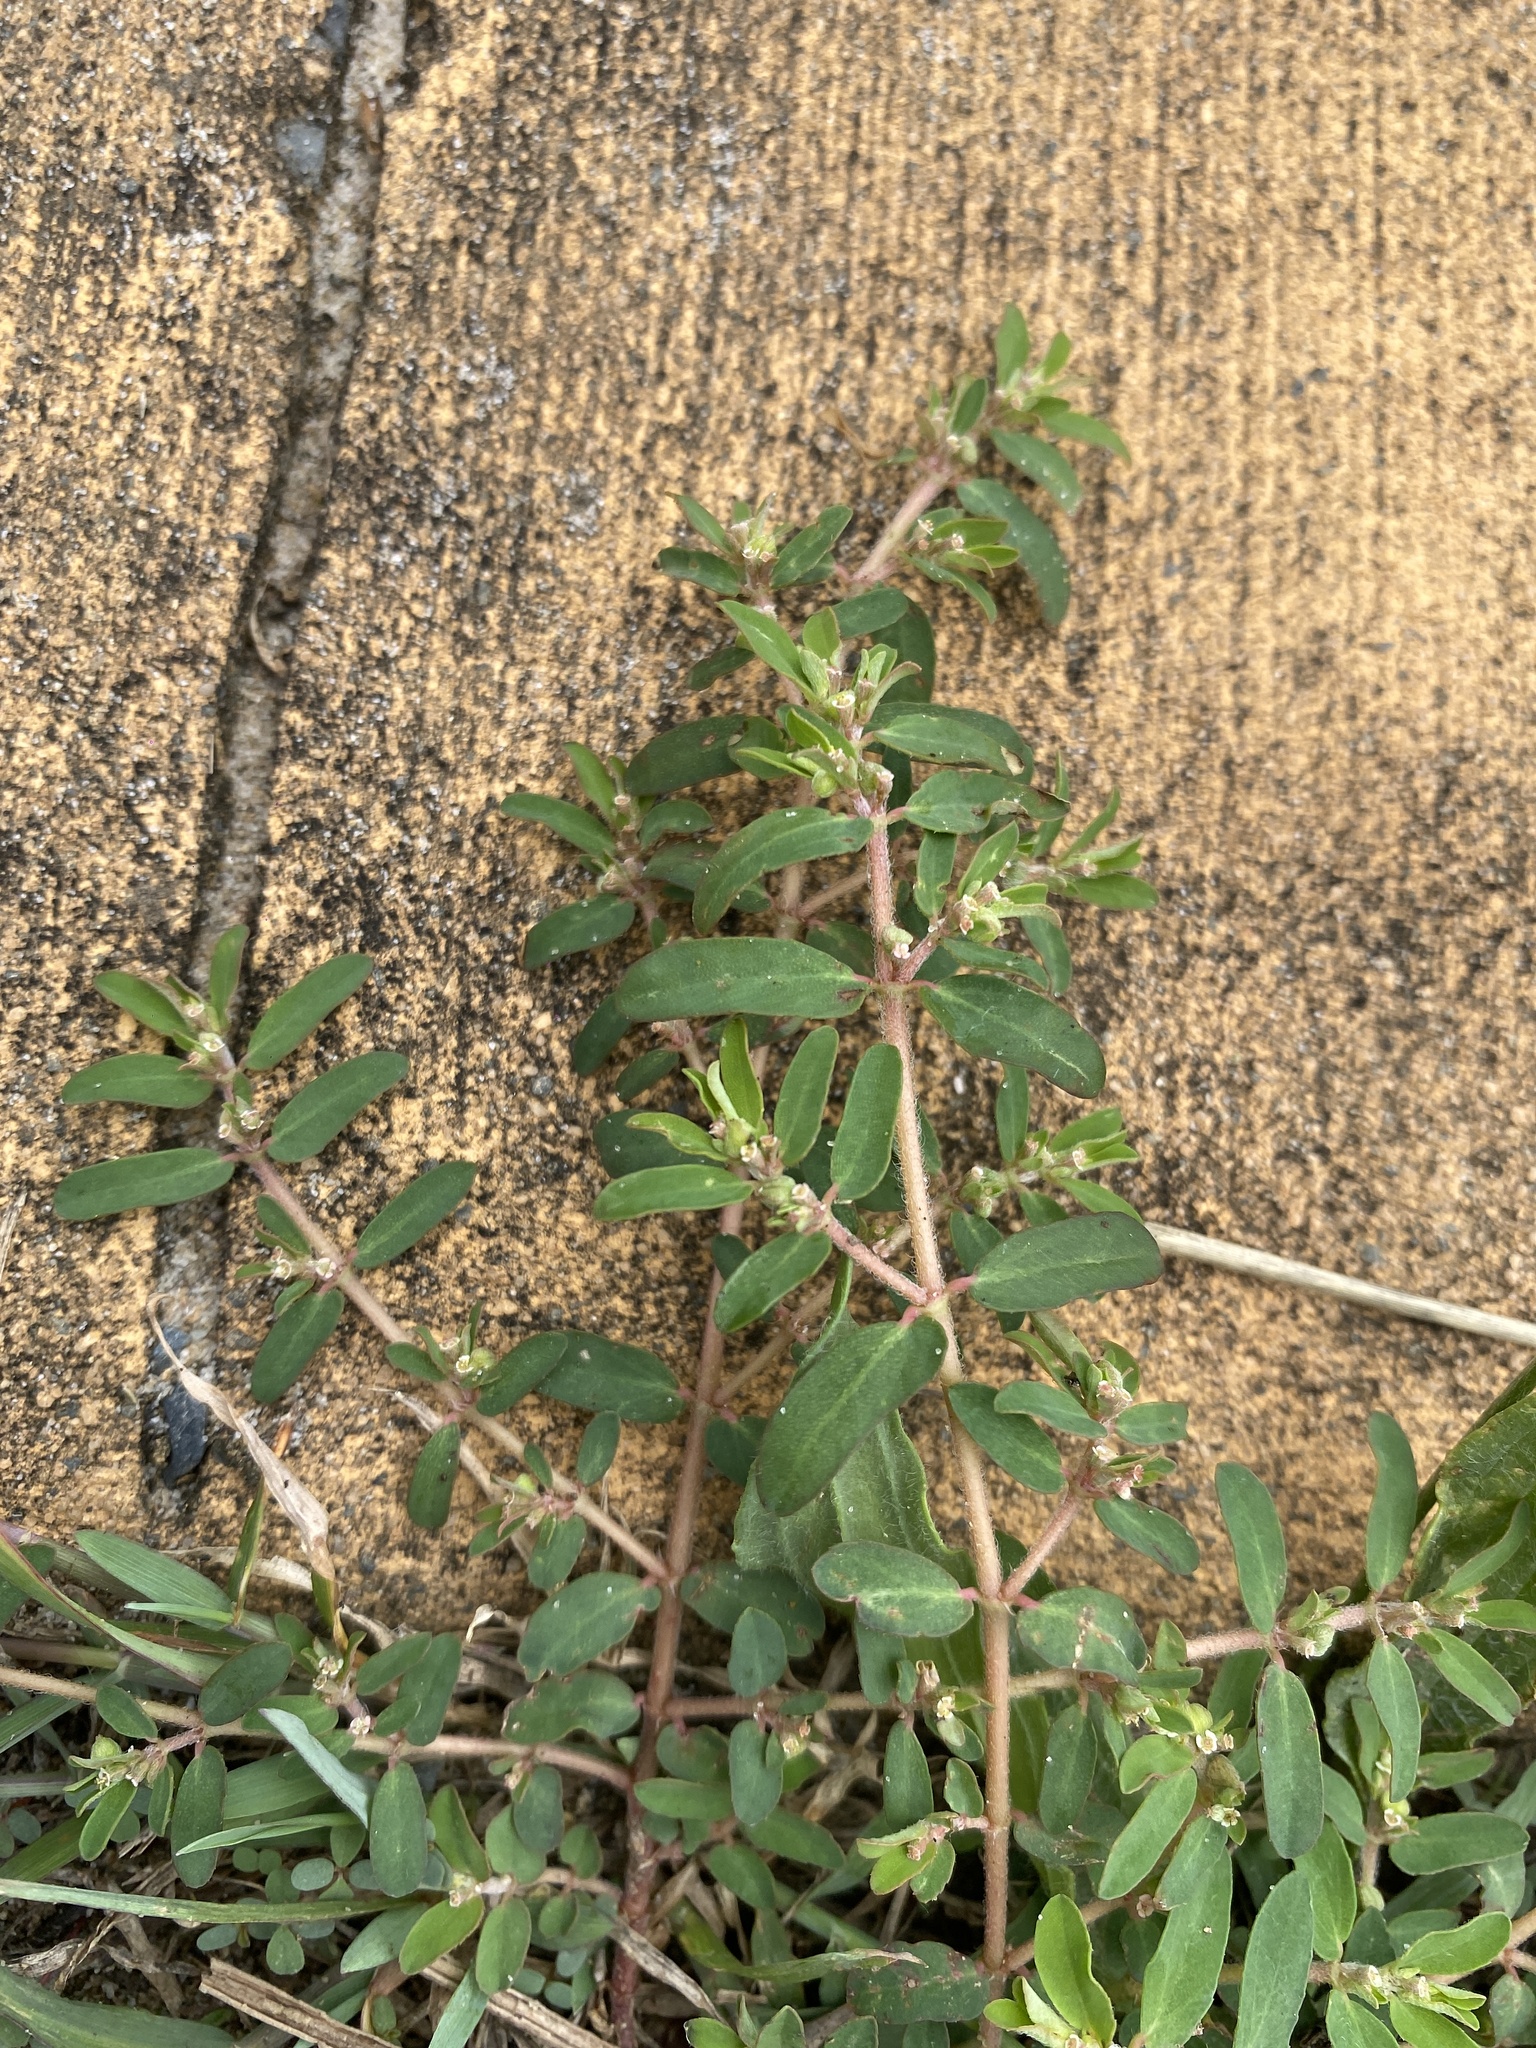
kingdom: Plantae
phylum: Tracheophyta
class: Magnoliopsida
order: Malpighiales
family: Euphorbiaceae
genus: Euphorbia
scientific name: Euphorbia maculata
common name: Spotted spurge
